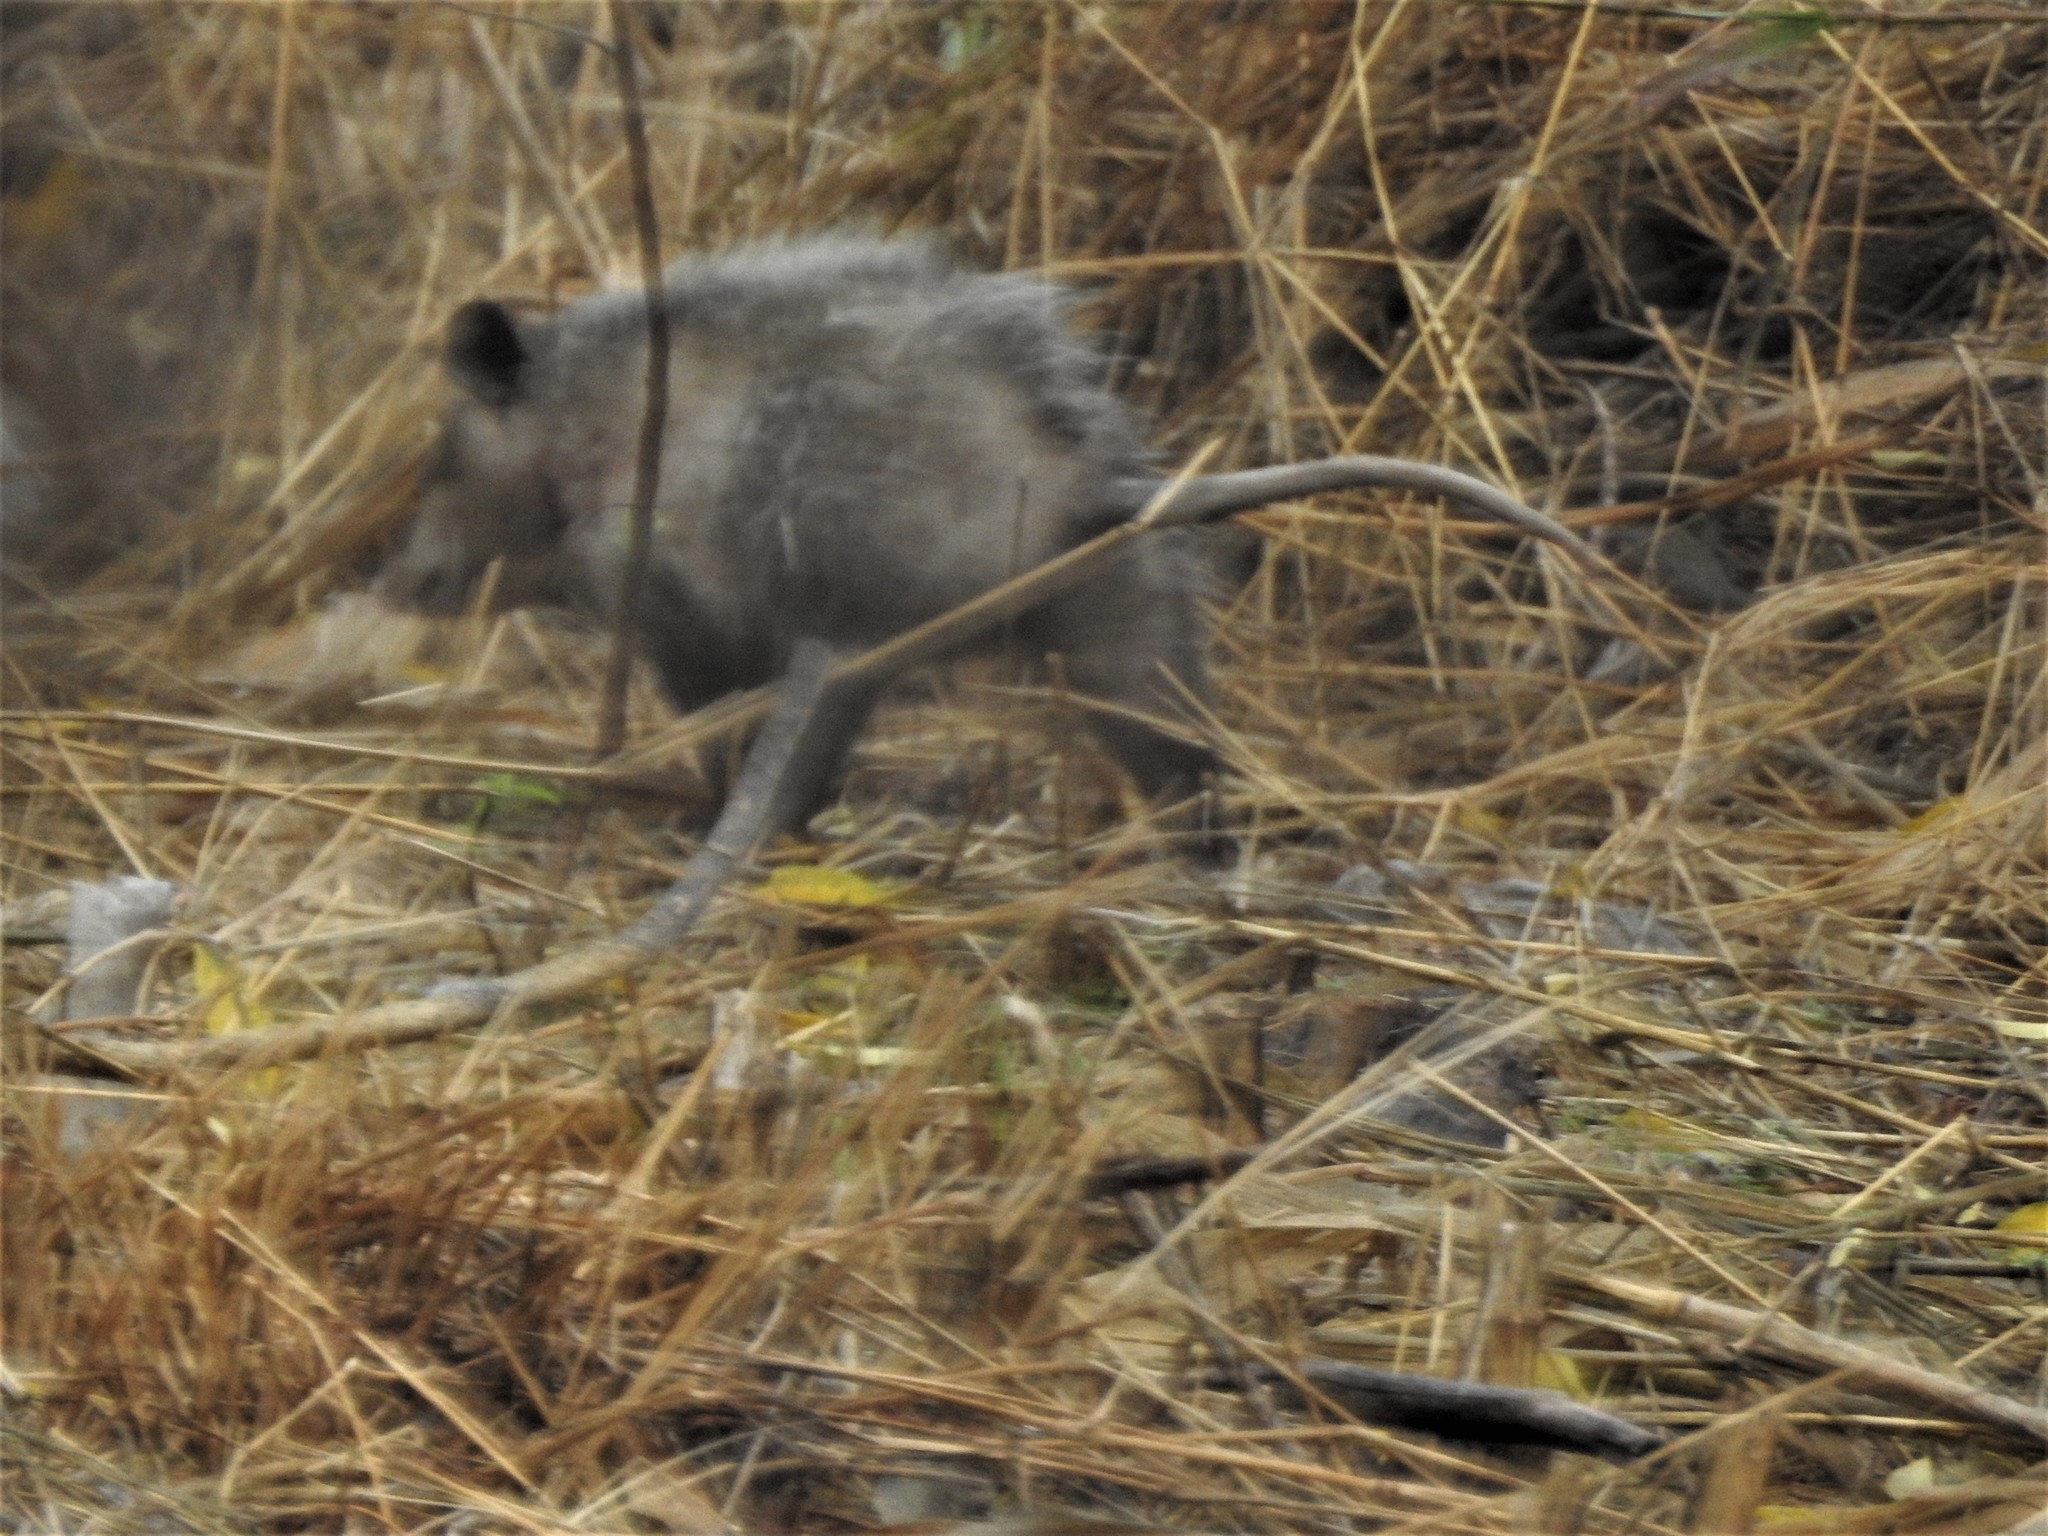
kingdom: Animalia
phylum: Chordata
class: Mammalia
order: Didelphimorphia
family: Didelphidae
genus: Didelphis
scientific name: Didelphis virginiana
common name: Virginia opossum
